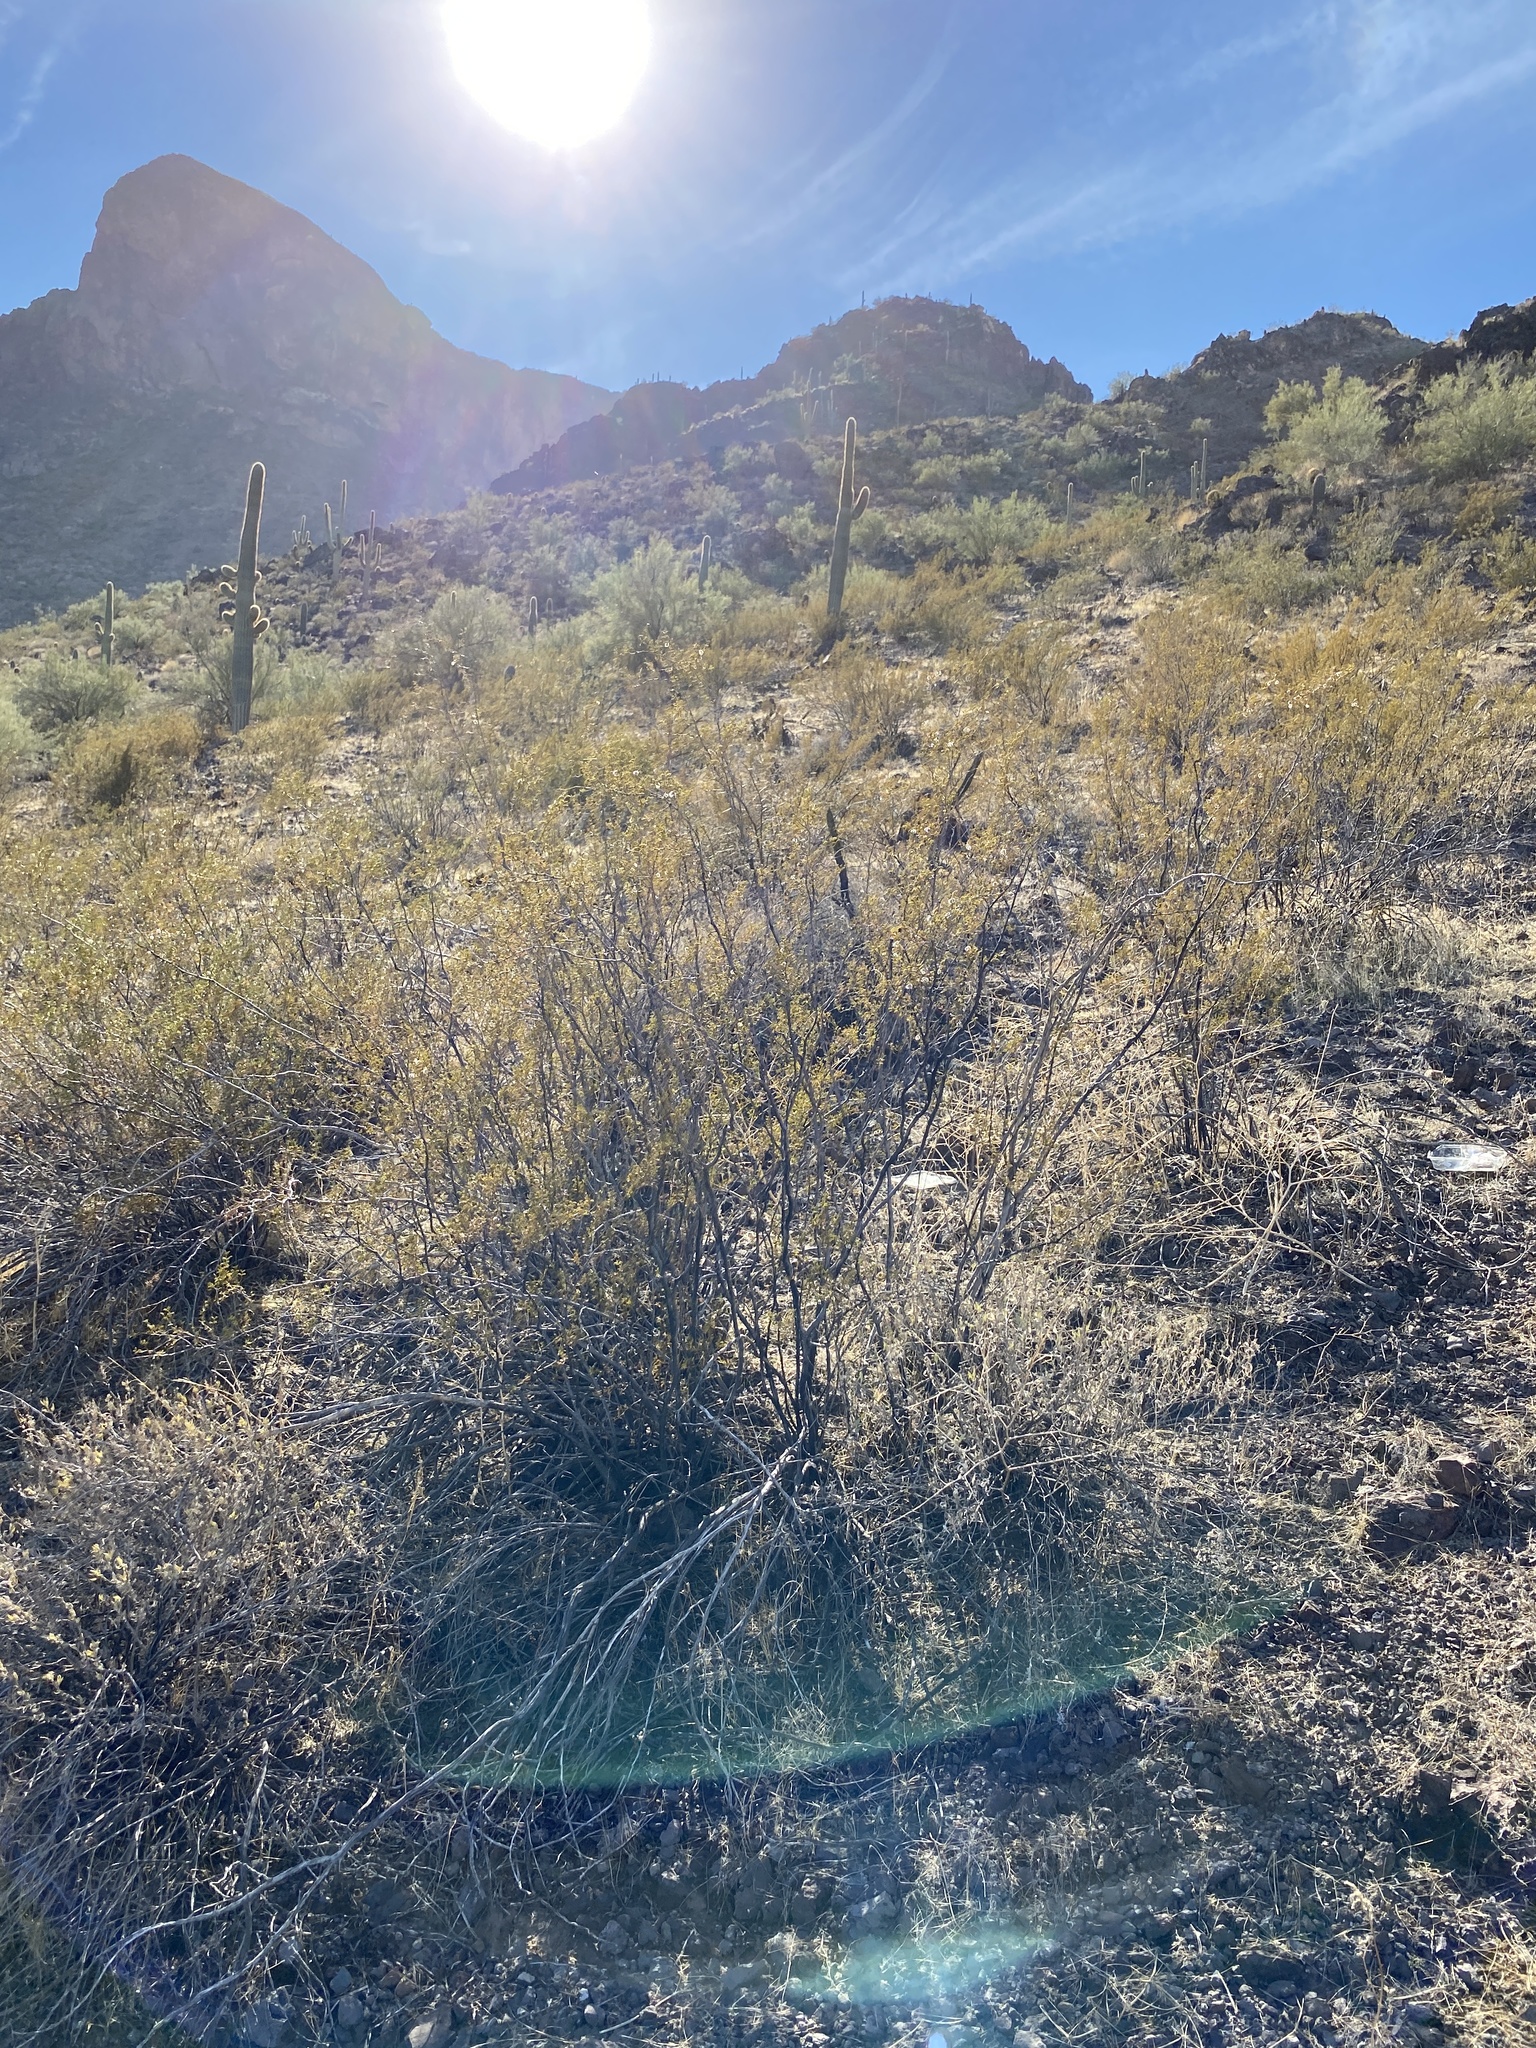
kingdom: Plantae
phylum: Tracheophyta
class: Magnoliopsida
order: Zygophyllales
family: Zygophyllaceae
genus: Larrea
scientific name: Larrea tridentata
